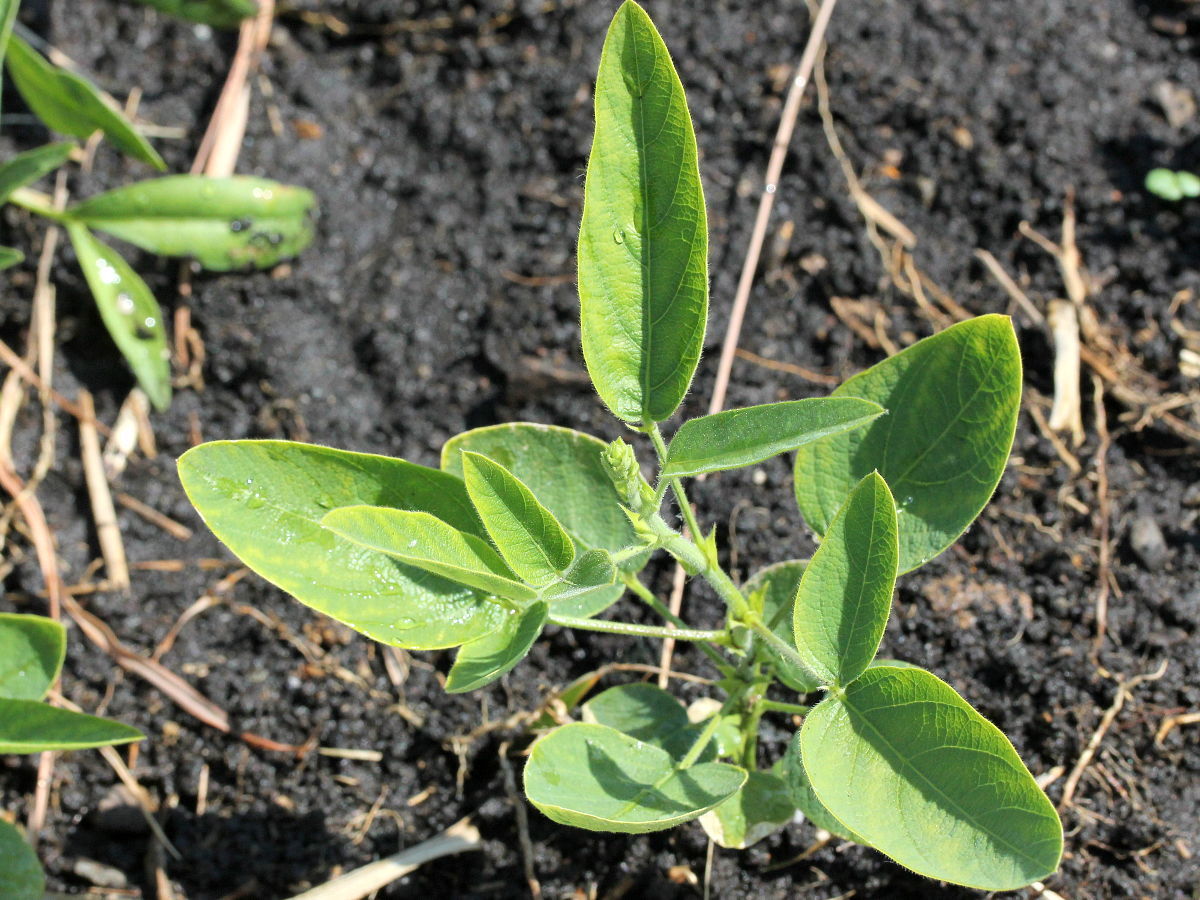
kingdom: Plantae
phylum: Tracheophyta
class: Magnoliopsida
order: Fabales
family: Fabaceae
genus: Desmodium
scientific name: Desmodium illinoense
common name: Illinois tick-clover
